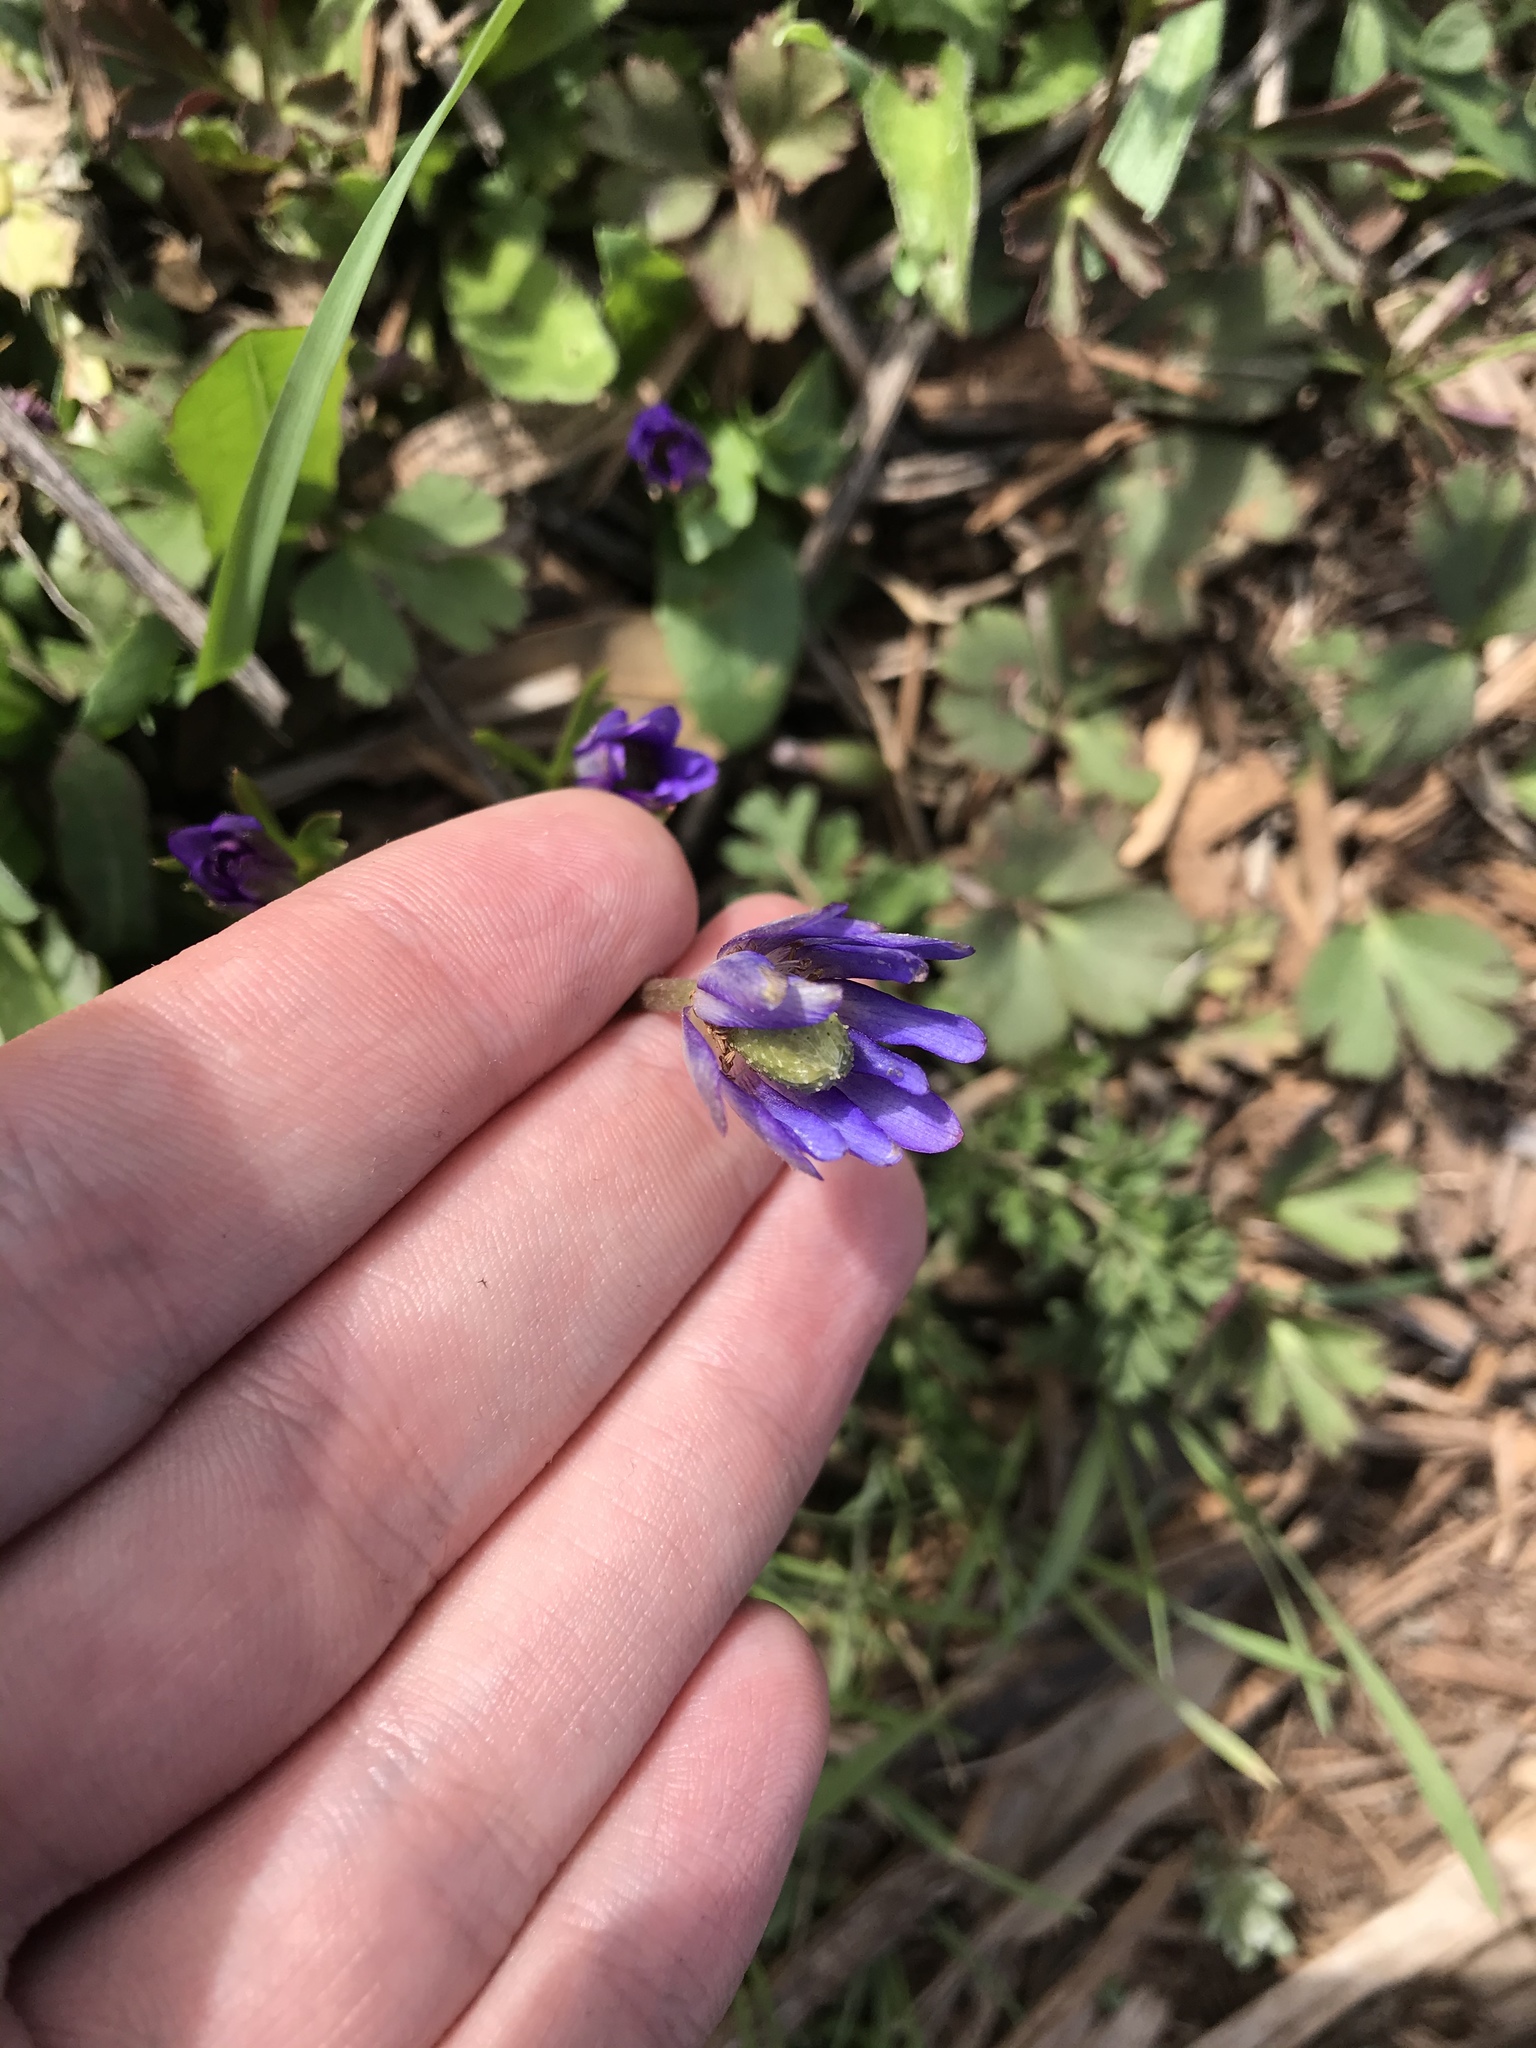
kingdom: Plantae
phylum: Tracheophyta
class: Magnoliopsida
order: Ranunculales
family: Ranunculaceae
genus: Anemone
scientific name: Anemone berlandieri
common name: Ten-petal anemone
